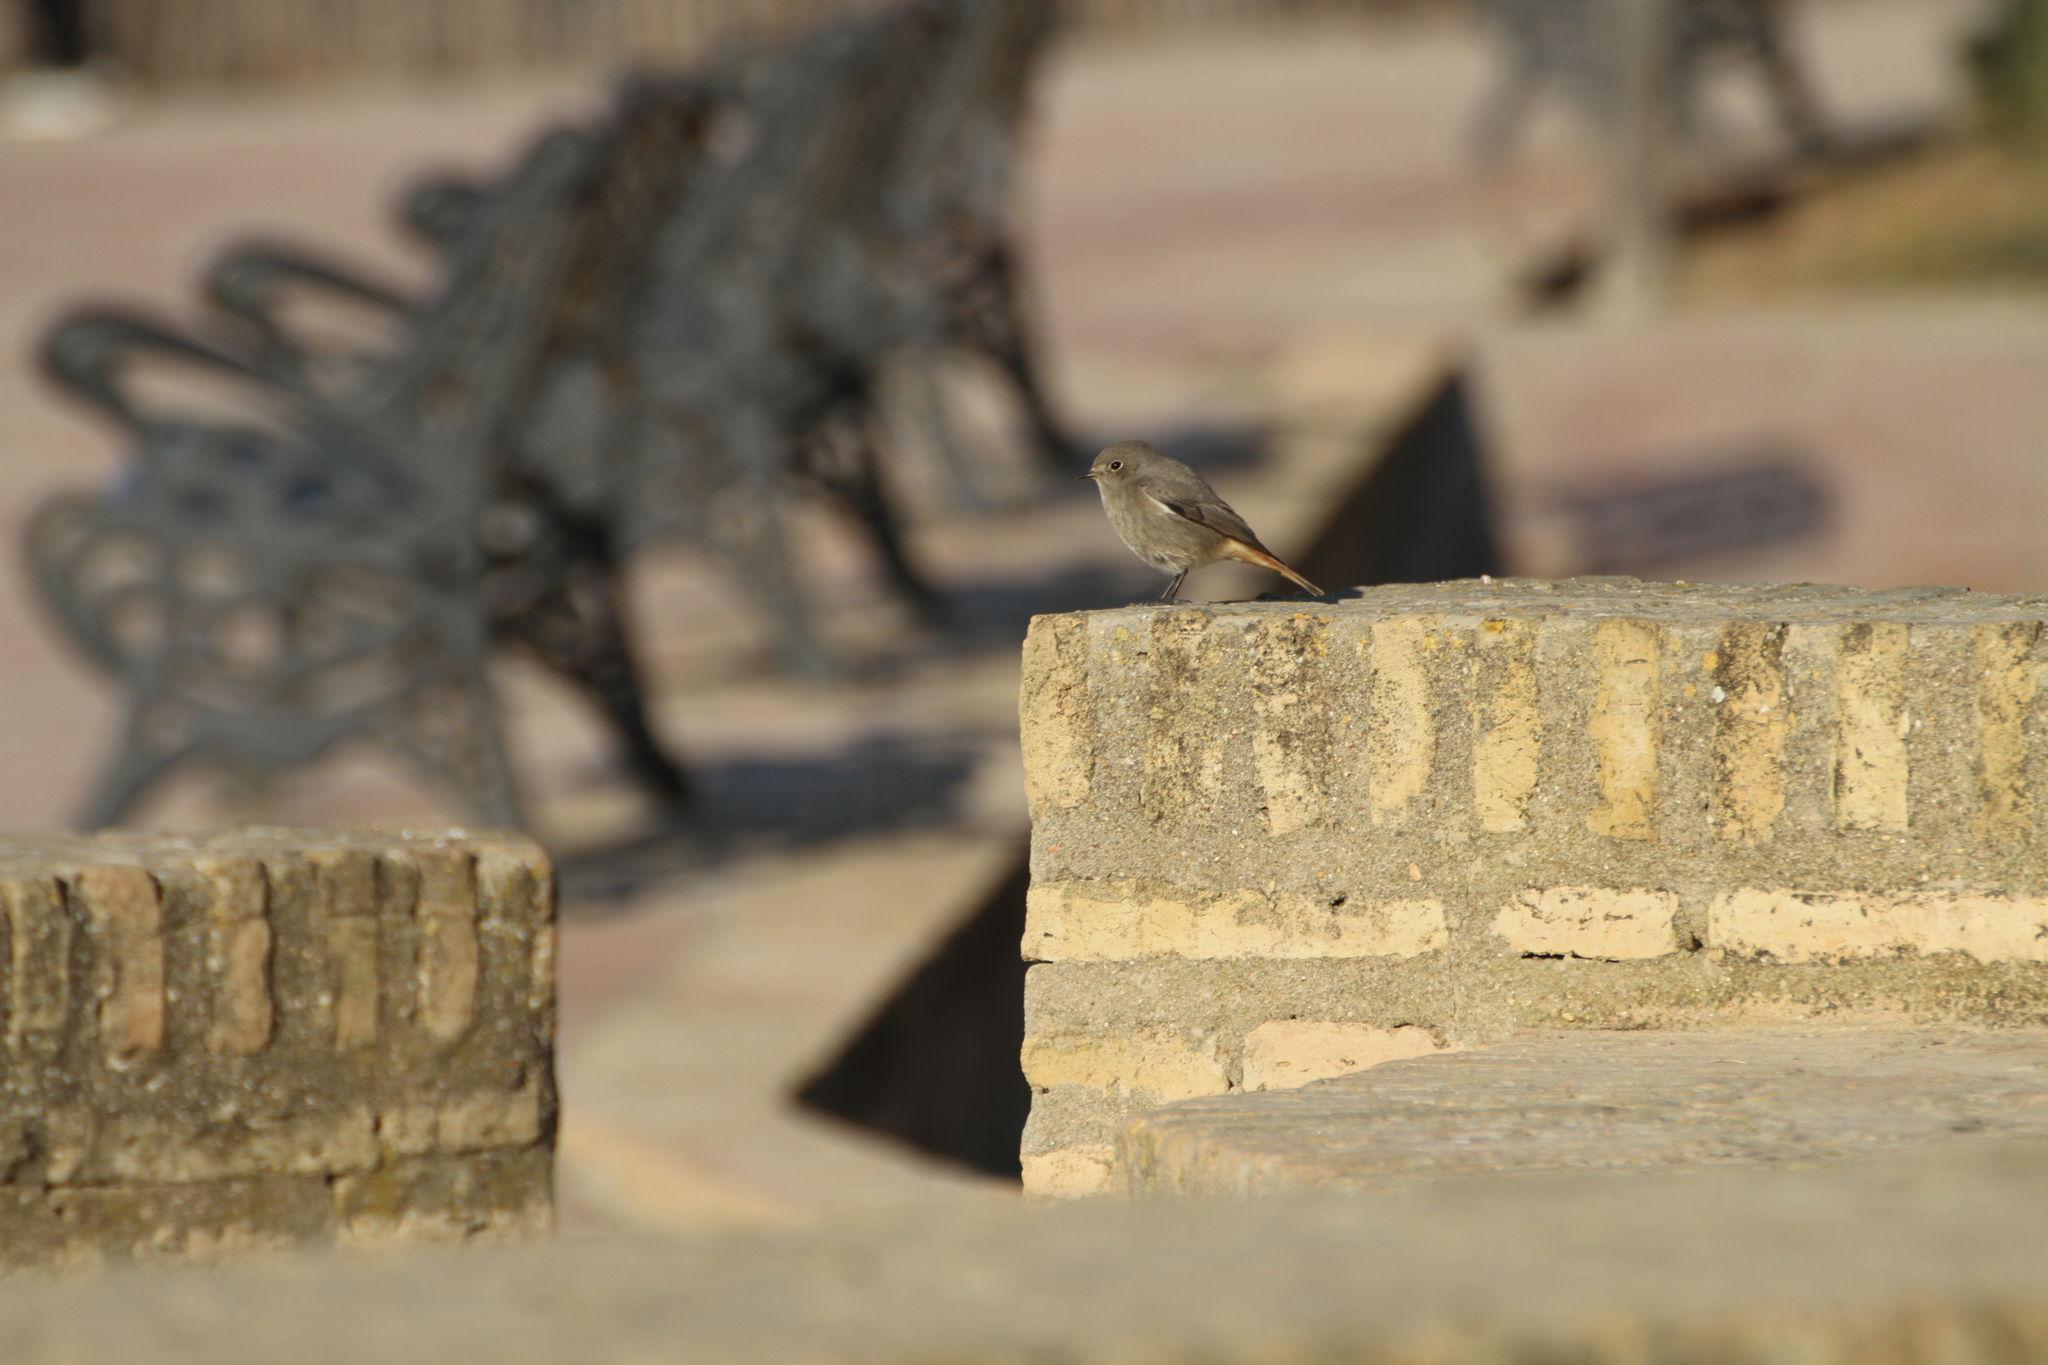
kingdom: Animalia
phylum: Chordata
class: Aves
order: Passeriformes
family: Muscicapidae
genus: Phoenicurus
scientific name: Phoenicurus ochruros
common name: Black redstart
